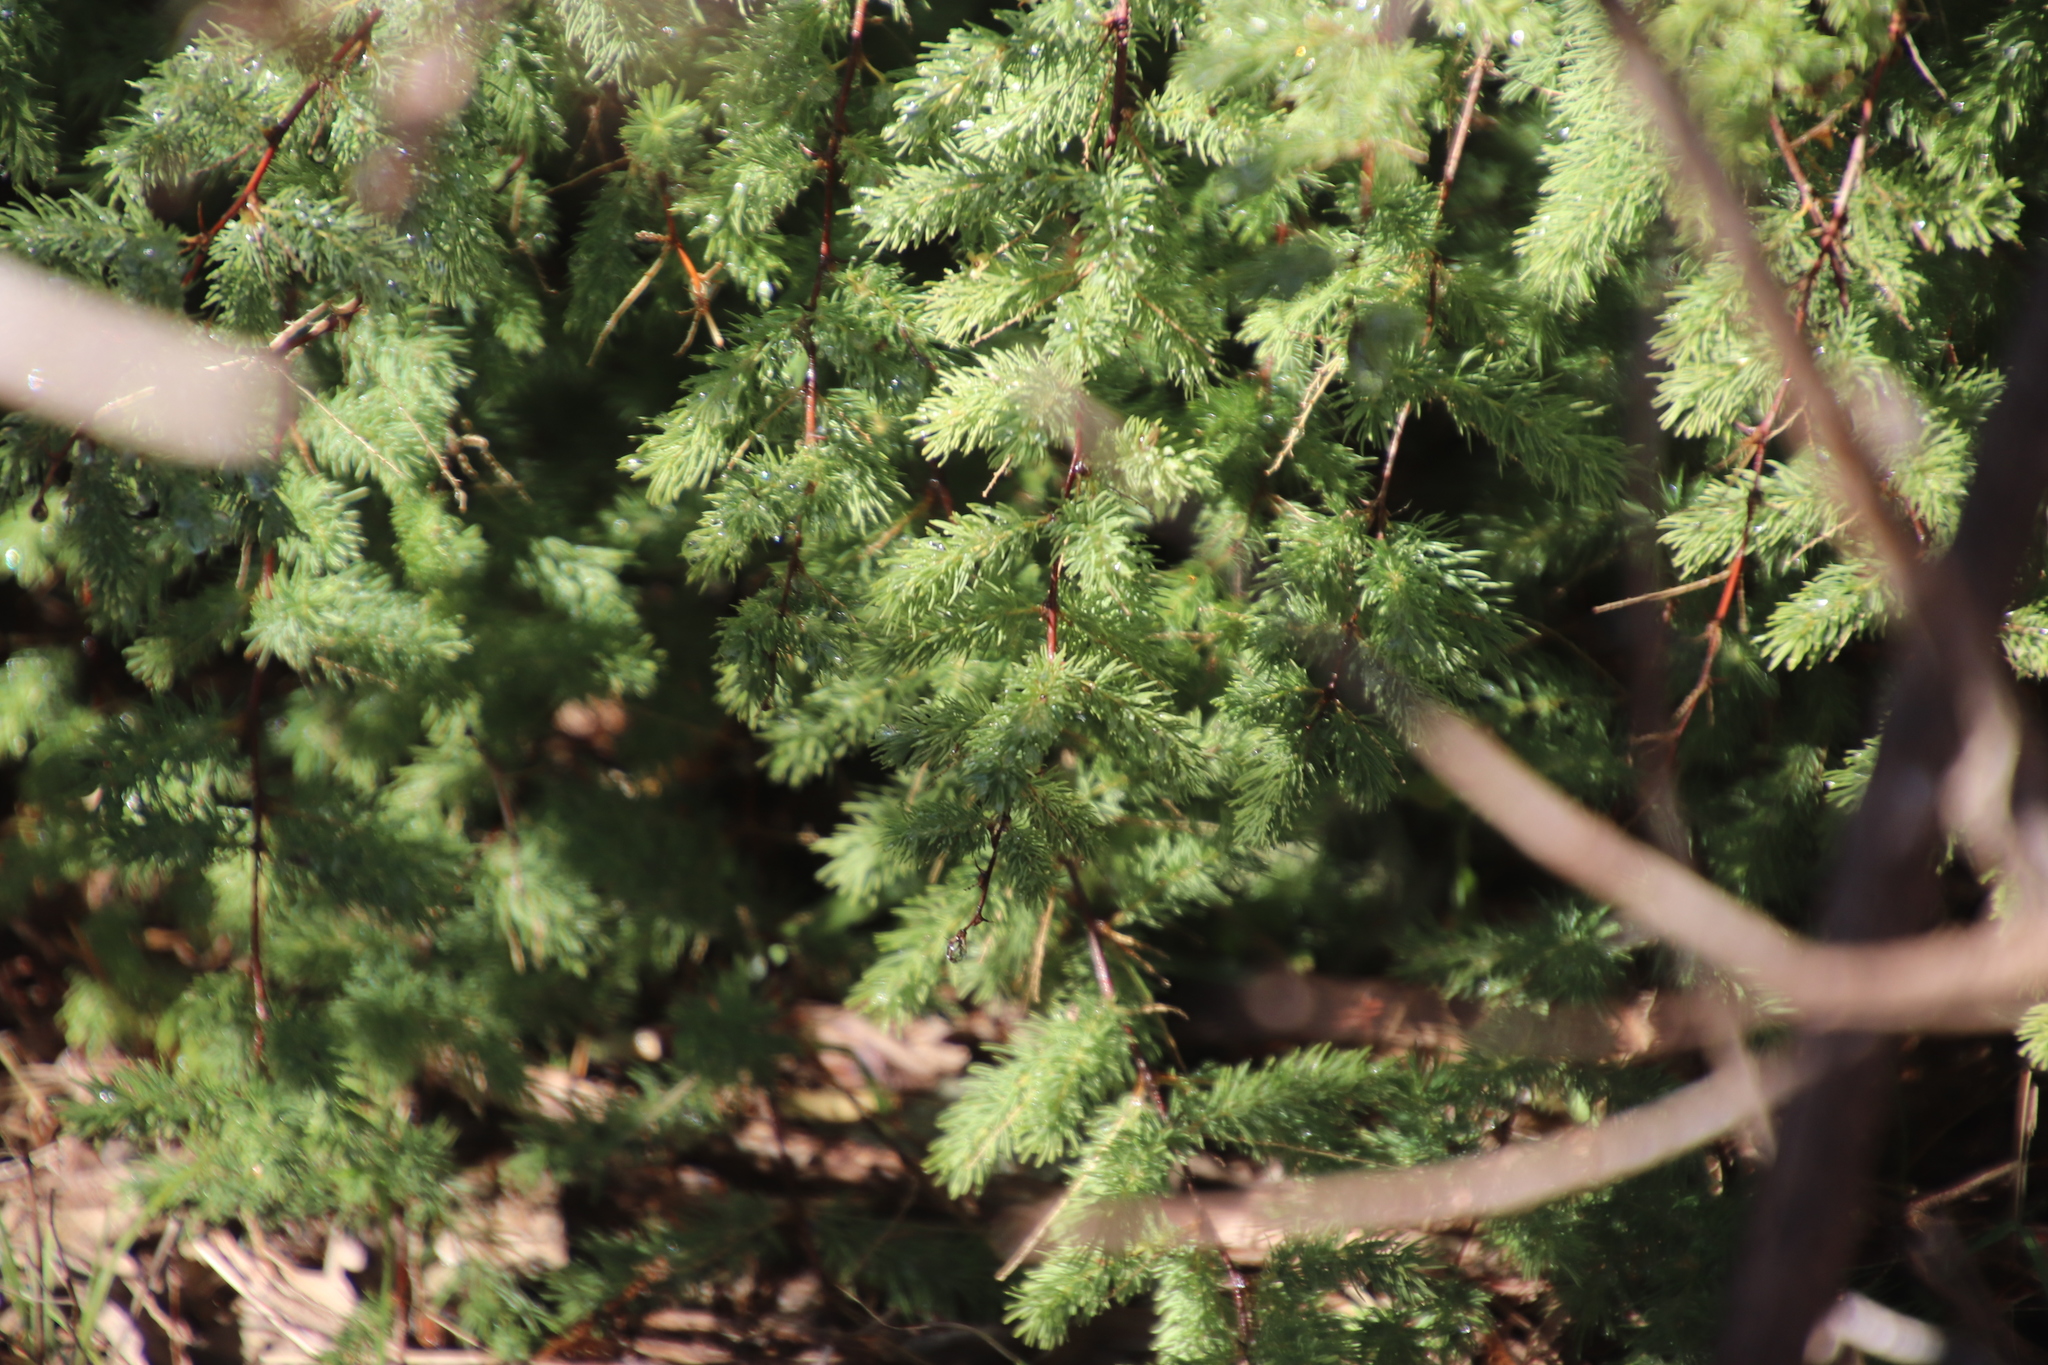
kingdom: Plantae
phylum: Tracheophyta
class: Liliopsida
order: Asparagales
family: Asparagaceae
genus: Asparagus
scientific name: Asparagus rubicundus
